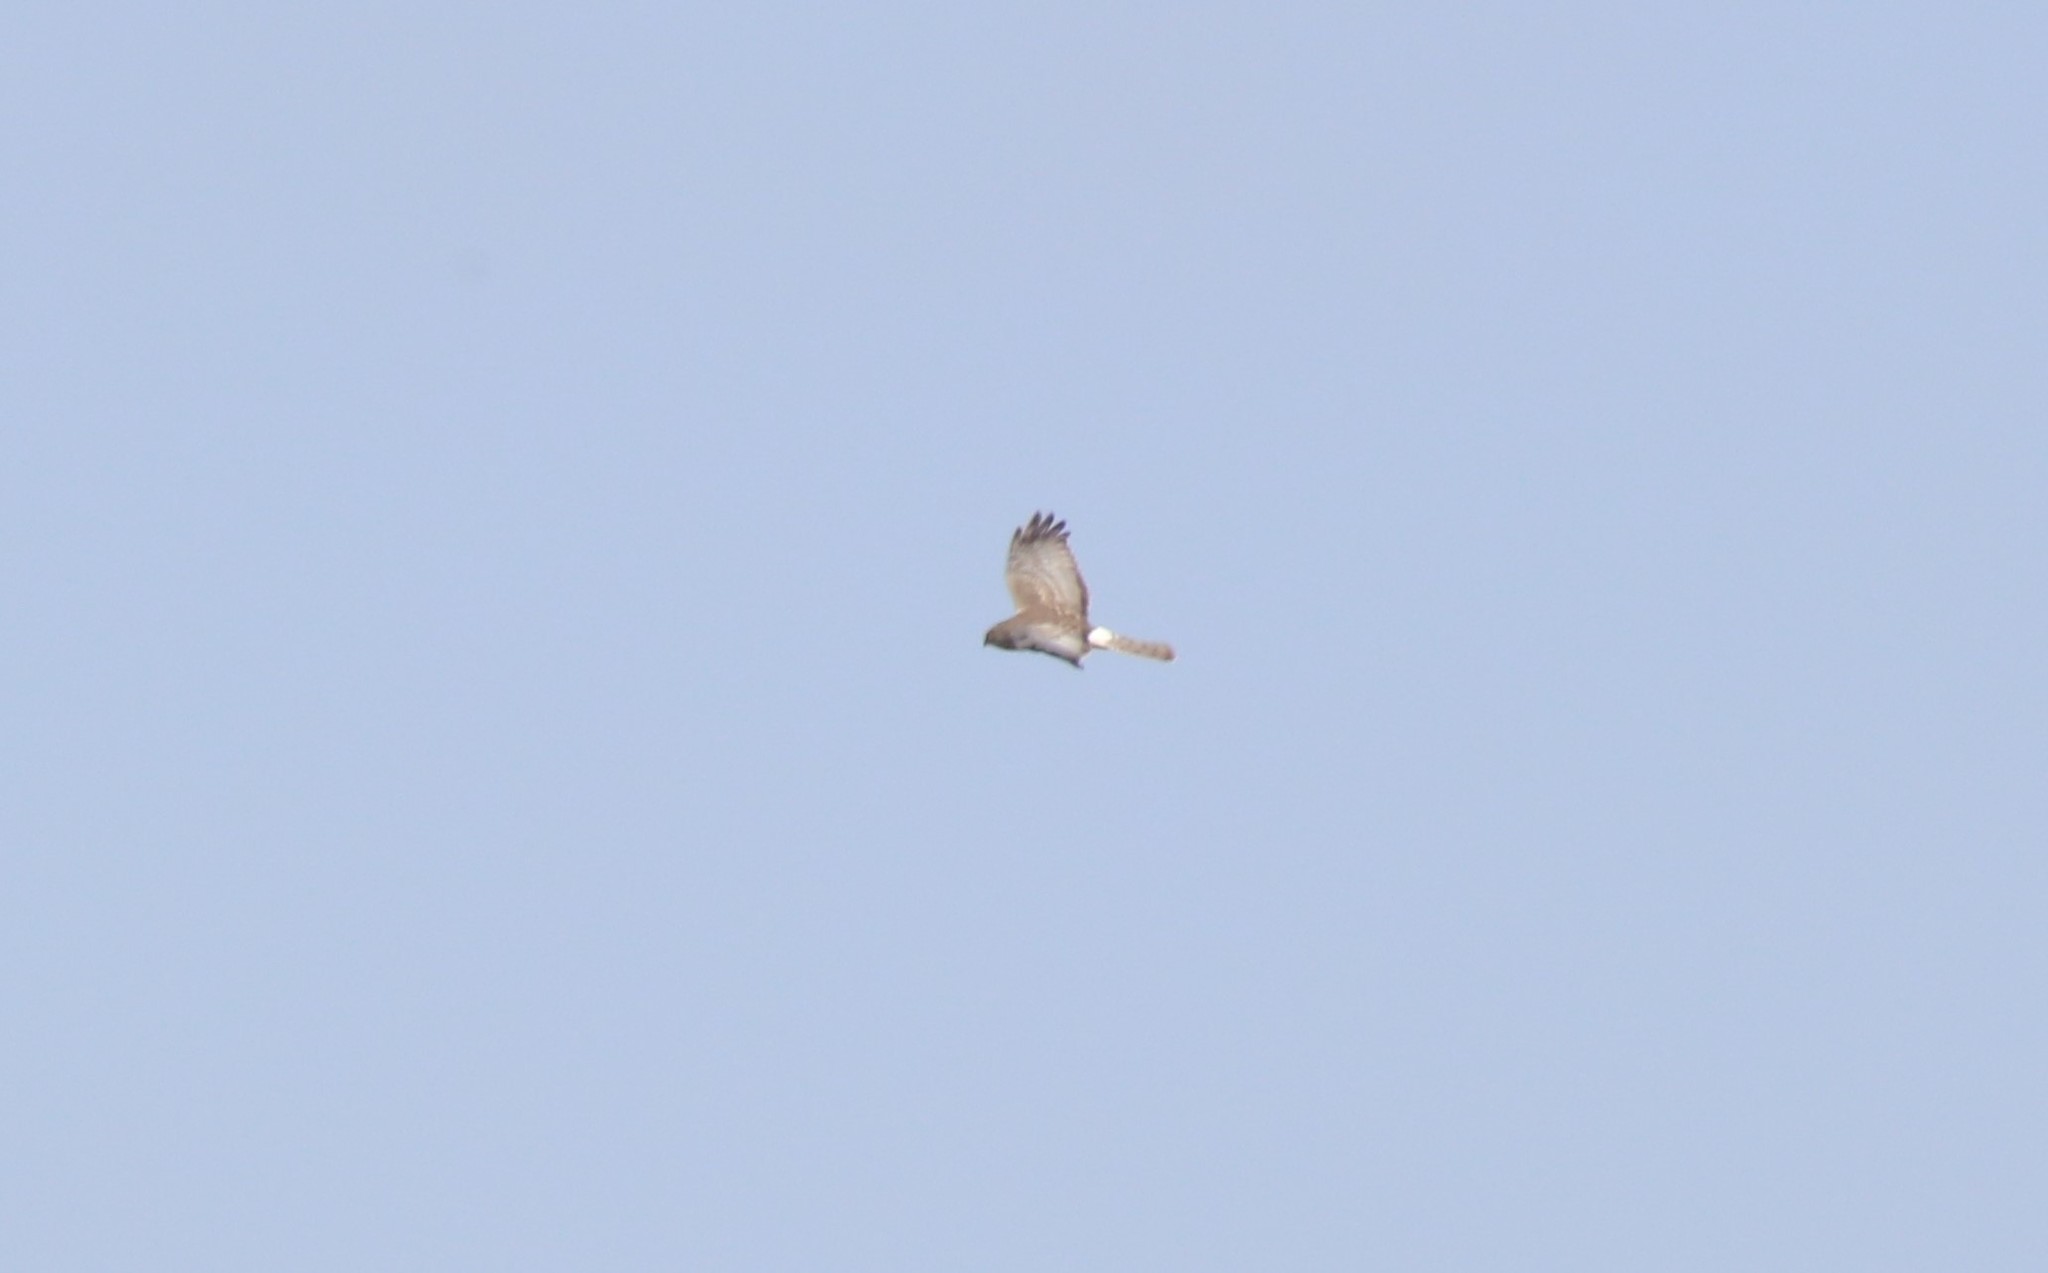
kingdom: Animalia
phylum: Chordata
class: Aves
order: Accipitriformes
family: Accipitridae
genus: Circus
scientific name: Circus cyaneus
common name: Hen harrier
